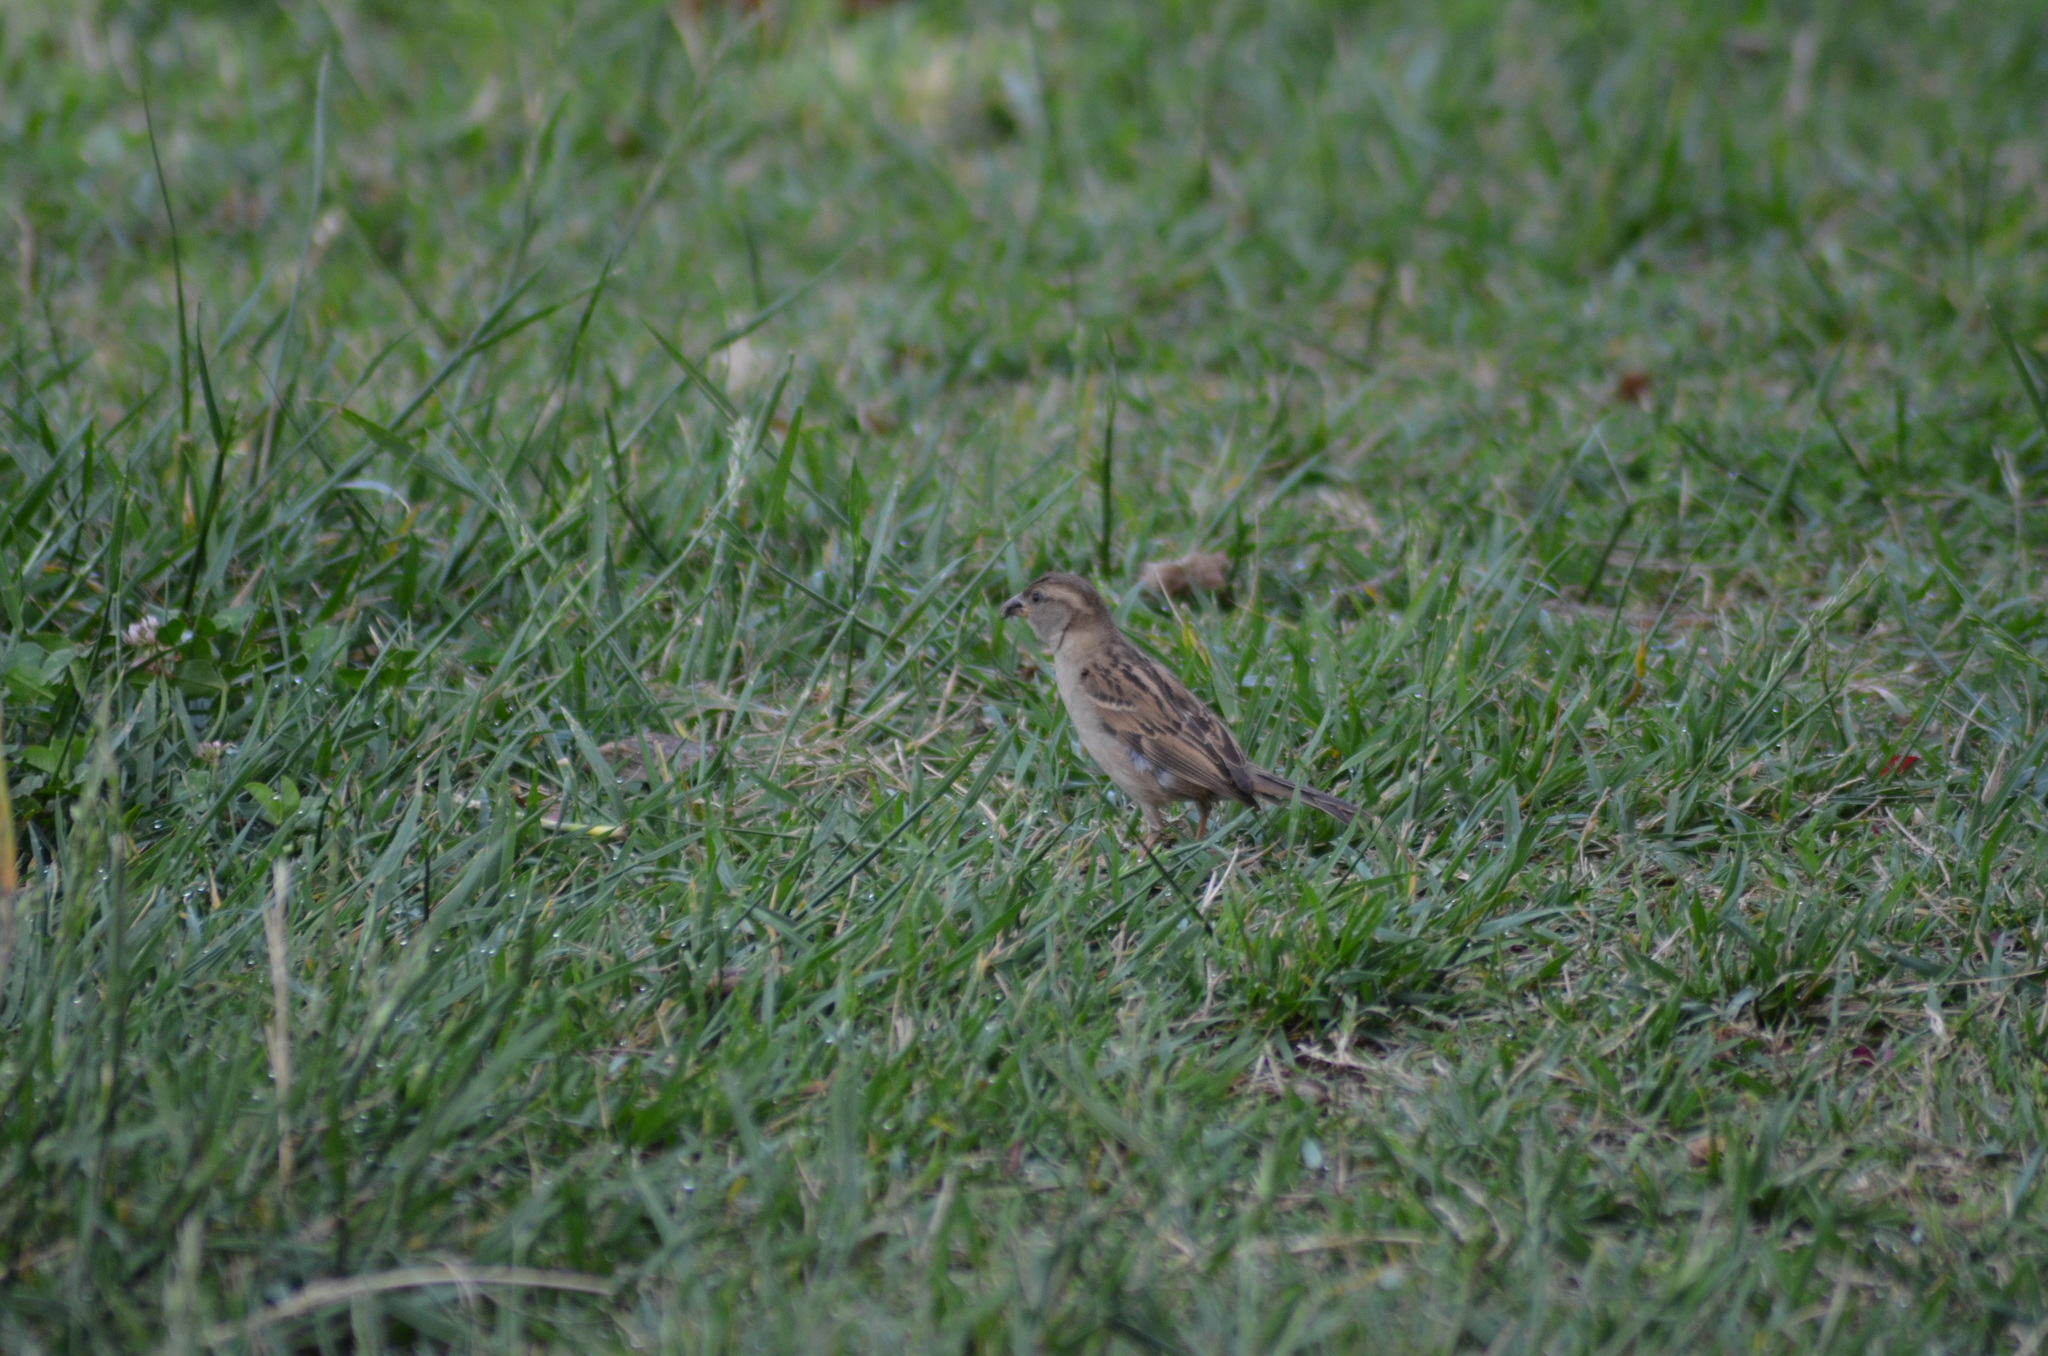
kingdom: Animalia
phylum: Chordata
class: Aves
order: Passeriformes
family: Passeridae
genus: Passer
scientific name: Passer domesticus
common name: House sparrow
